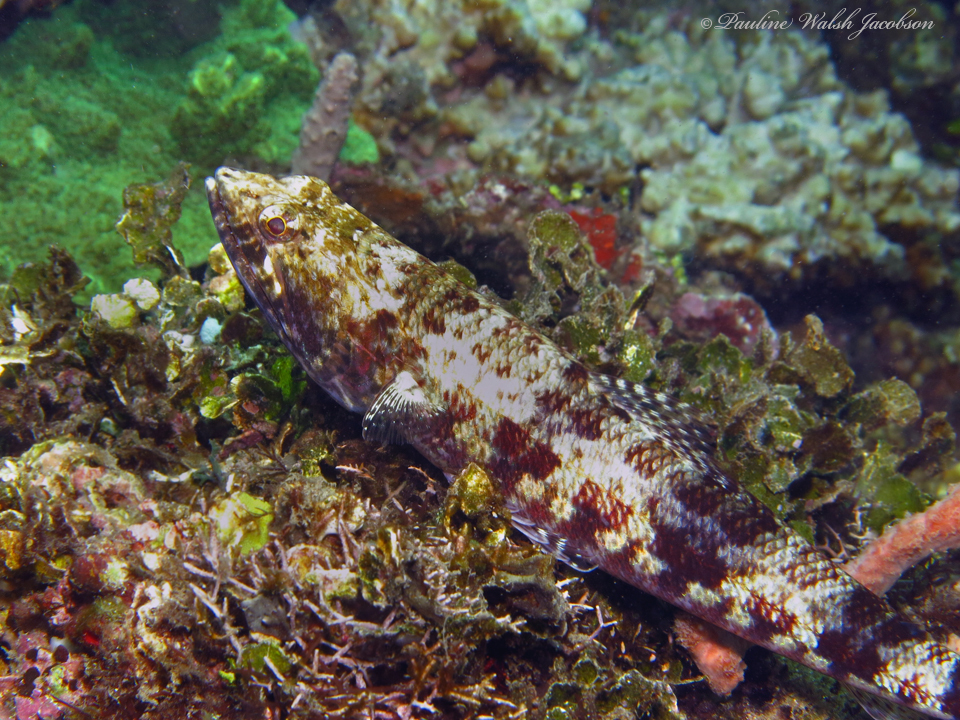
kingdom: Animalia
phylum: Chordata
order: Aulopiformes
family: Synodontidae
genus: Synodus
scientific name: Synodus variegatus
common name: Variegated lizardfish
